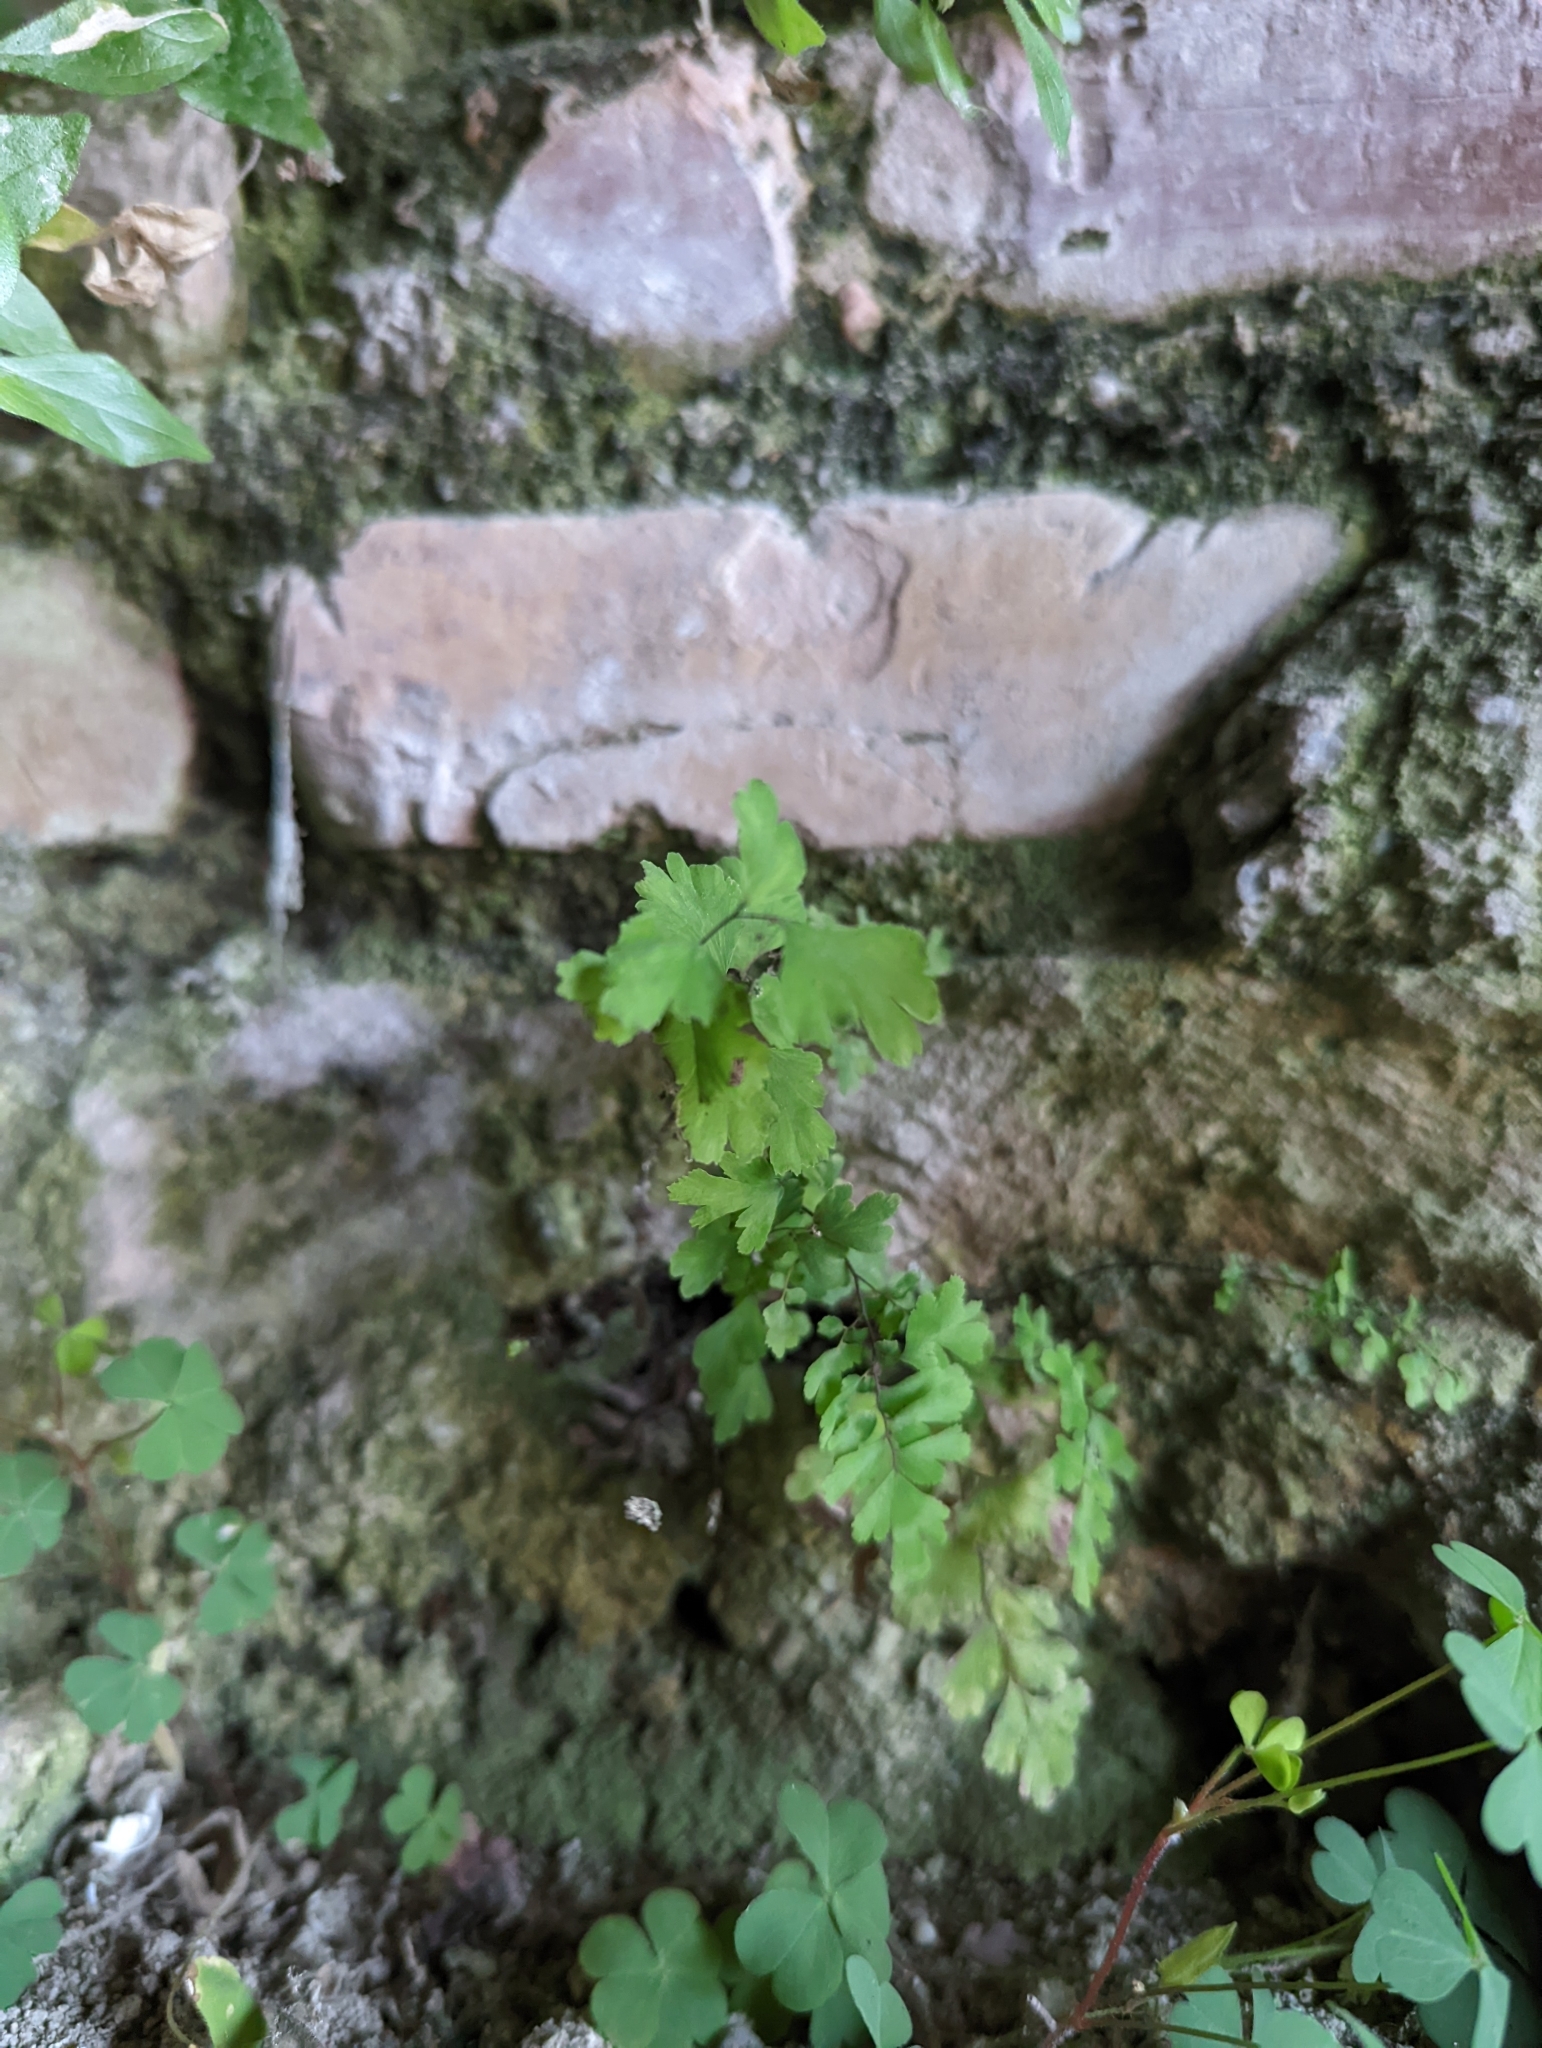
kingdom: Plantae
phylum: Tracheophyta
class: Polypodiopsida
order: Polypodiales
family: Pteridaceae
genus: Adiantum
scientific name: Adiantum capillus-veneris
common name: Maidenhair fern
